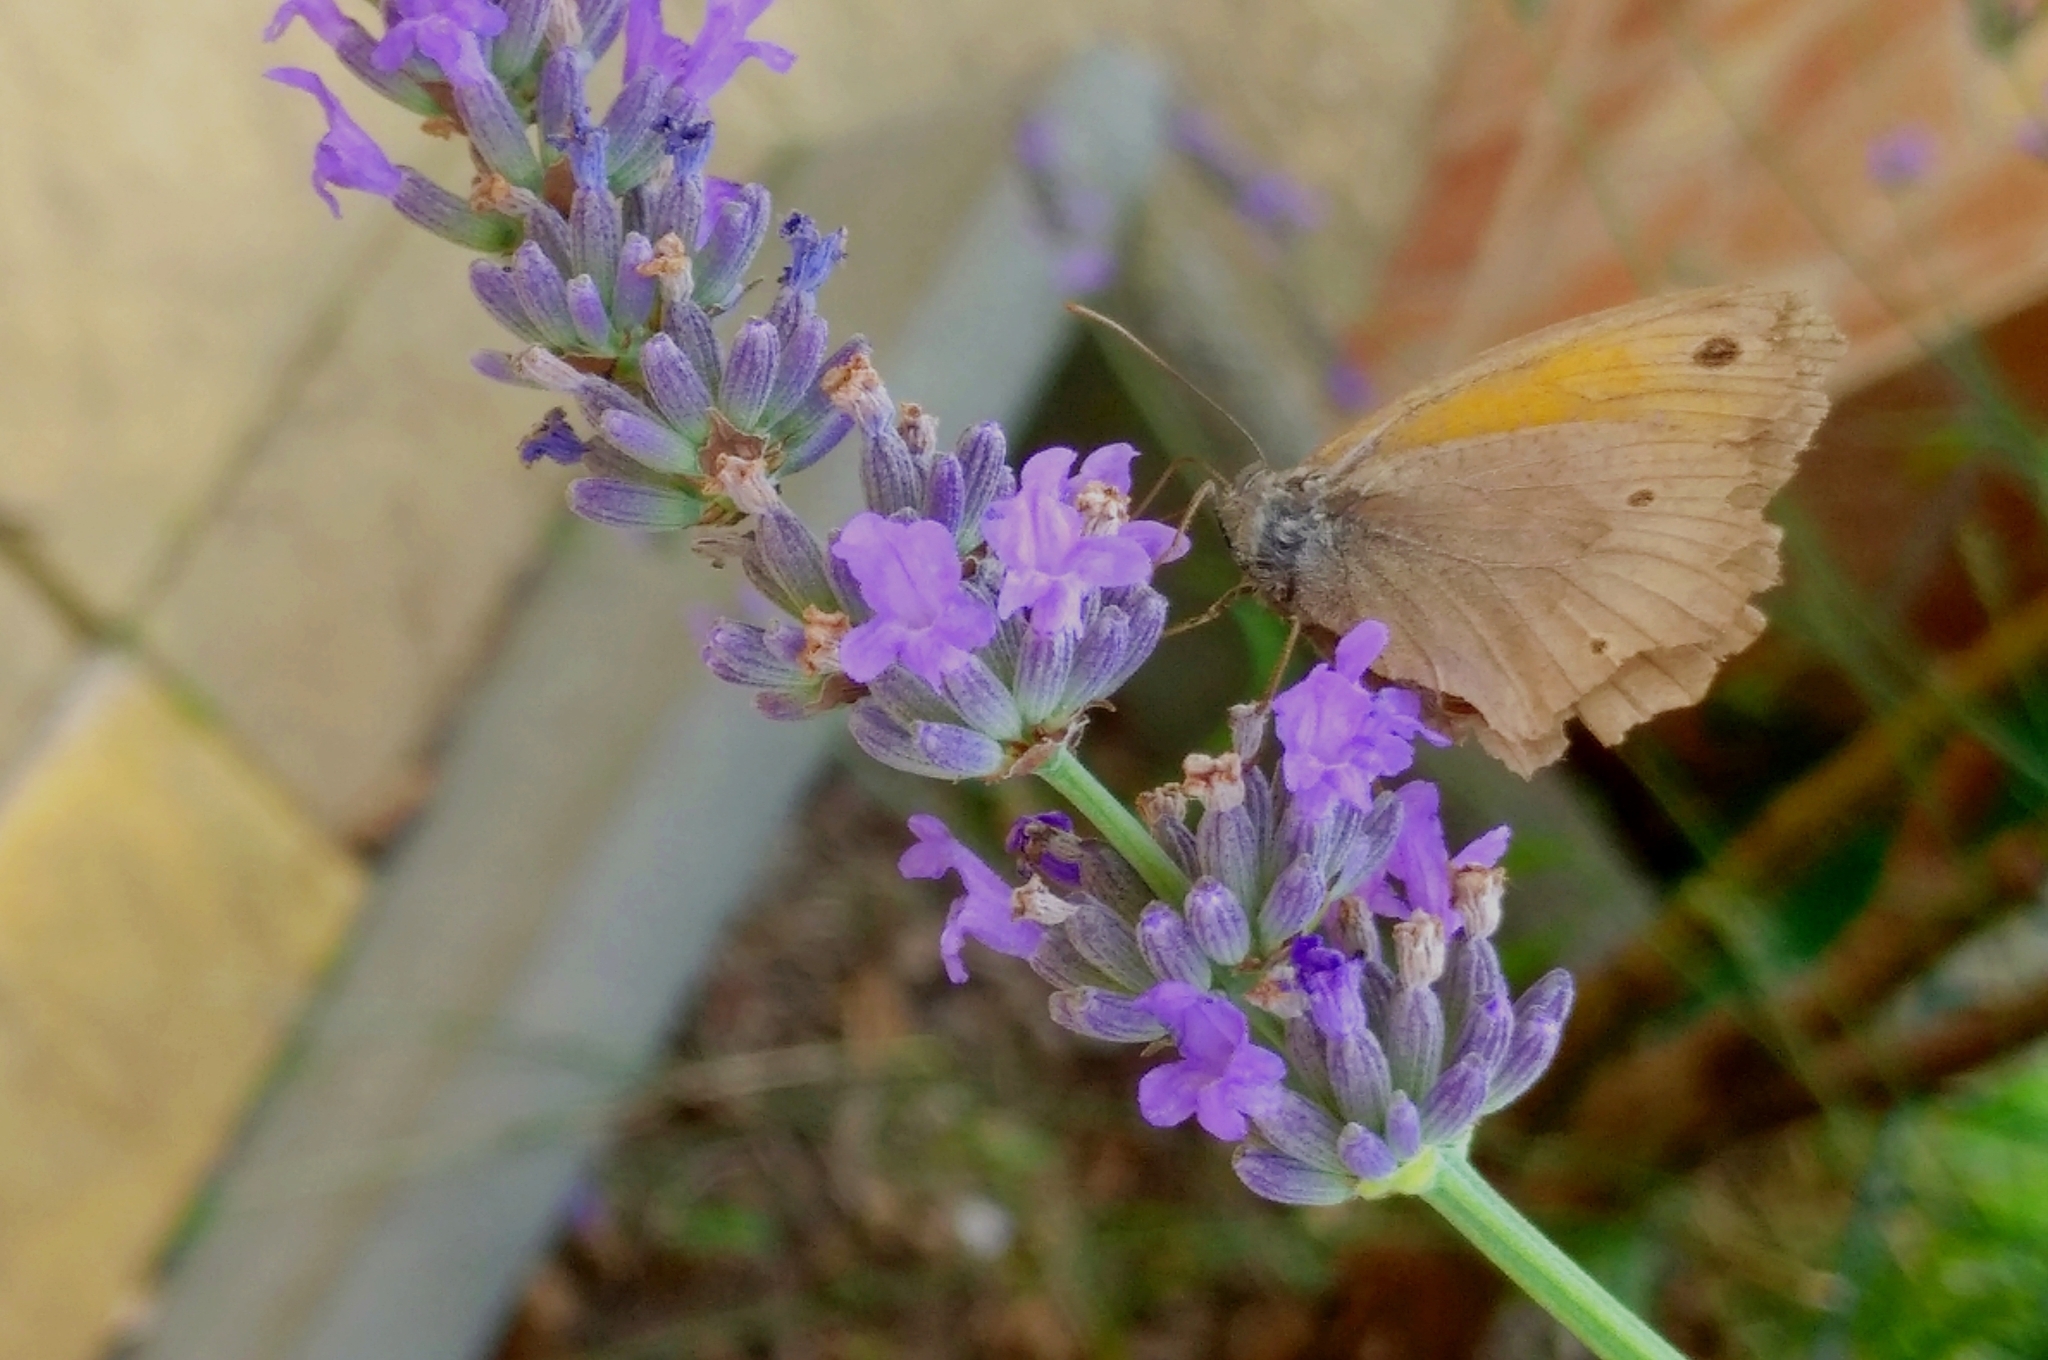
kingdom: Animalia
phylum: Arthropoda
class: Insecta
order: Lepidoptera
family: Nymphalidae
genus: Maniola
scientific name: Maniola jurtina
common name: Meadow brown
